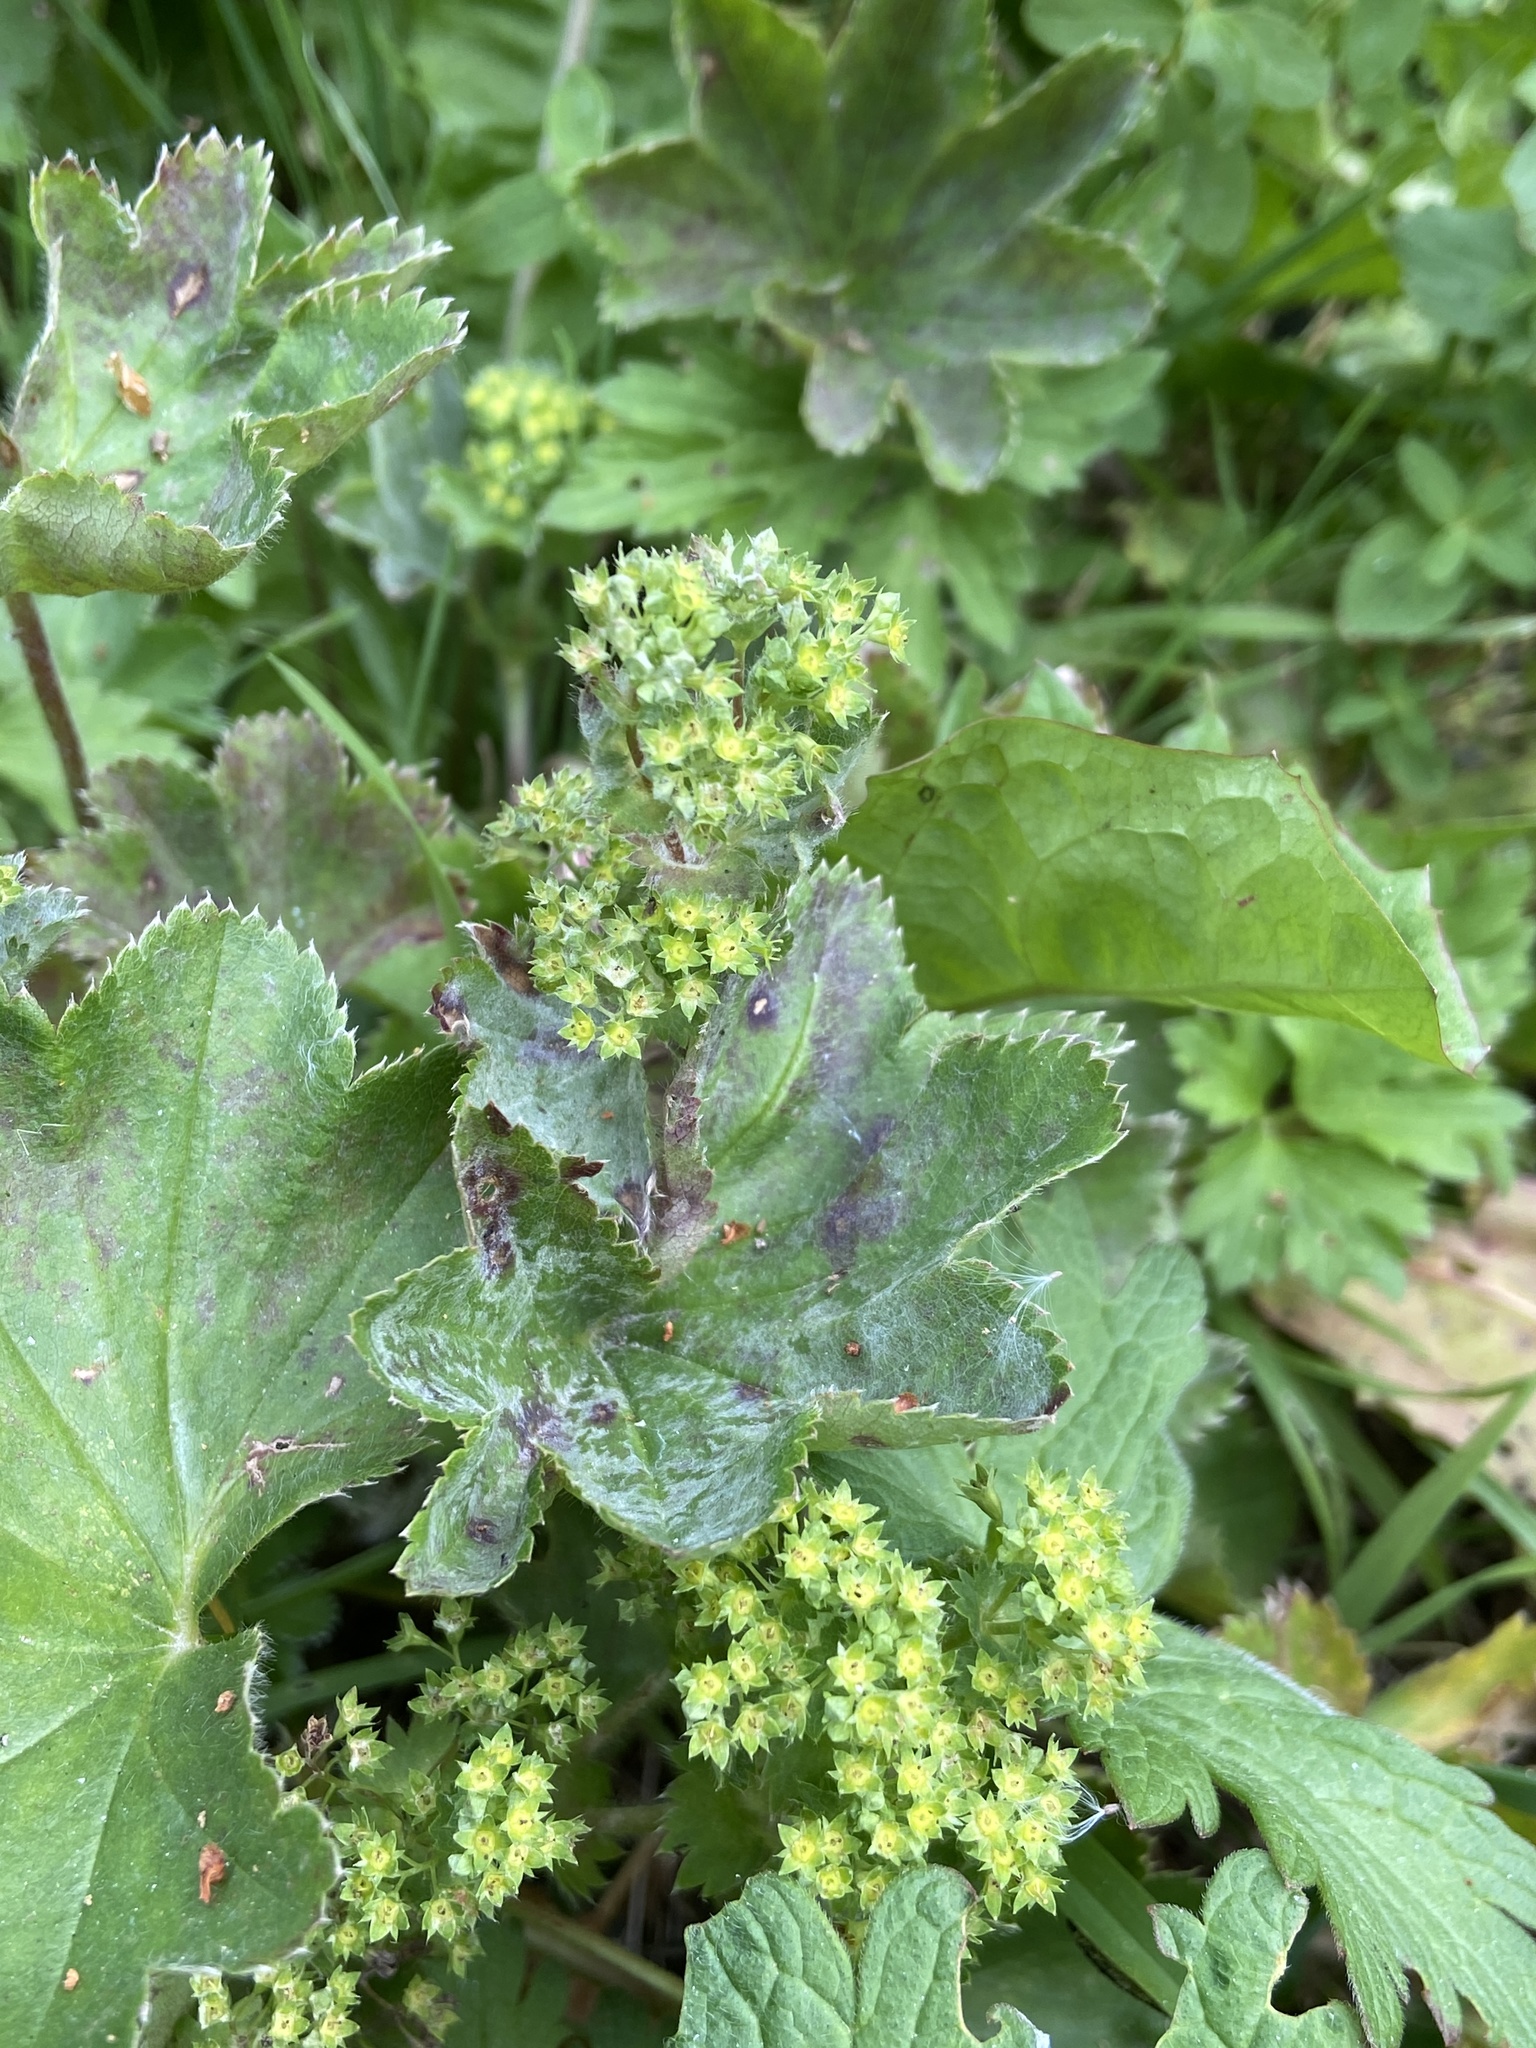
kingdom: Plantae
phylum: Tracheophyta
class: Magnoliopsida
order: Rosales
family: Rosaceae
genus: Alchemilla
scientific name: Alchemilla vulgaris
